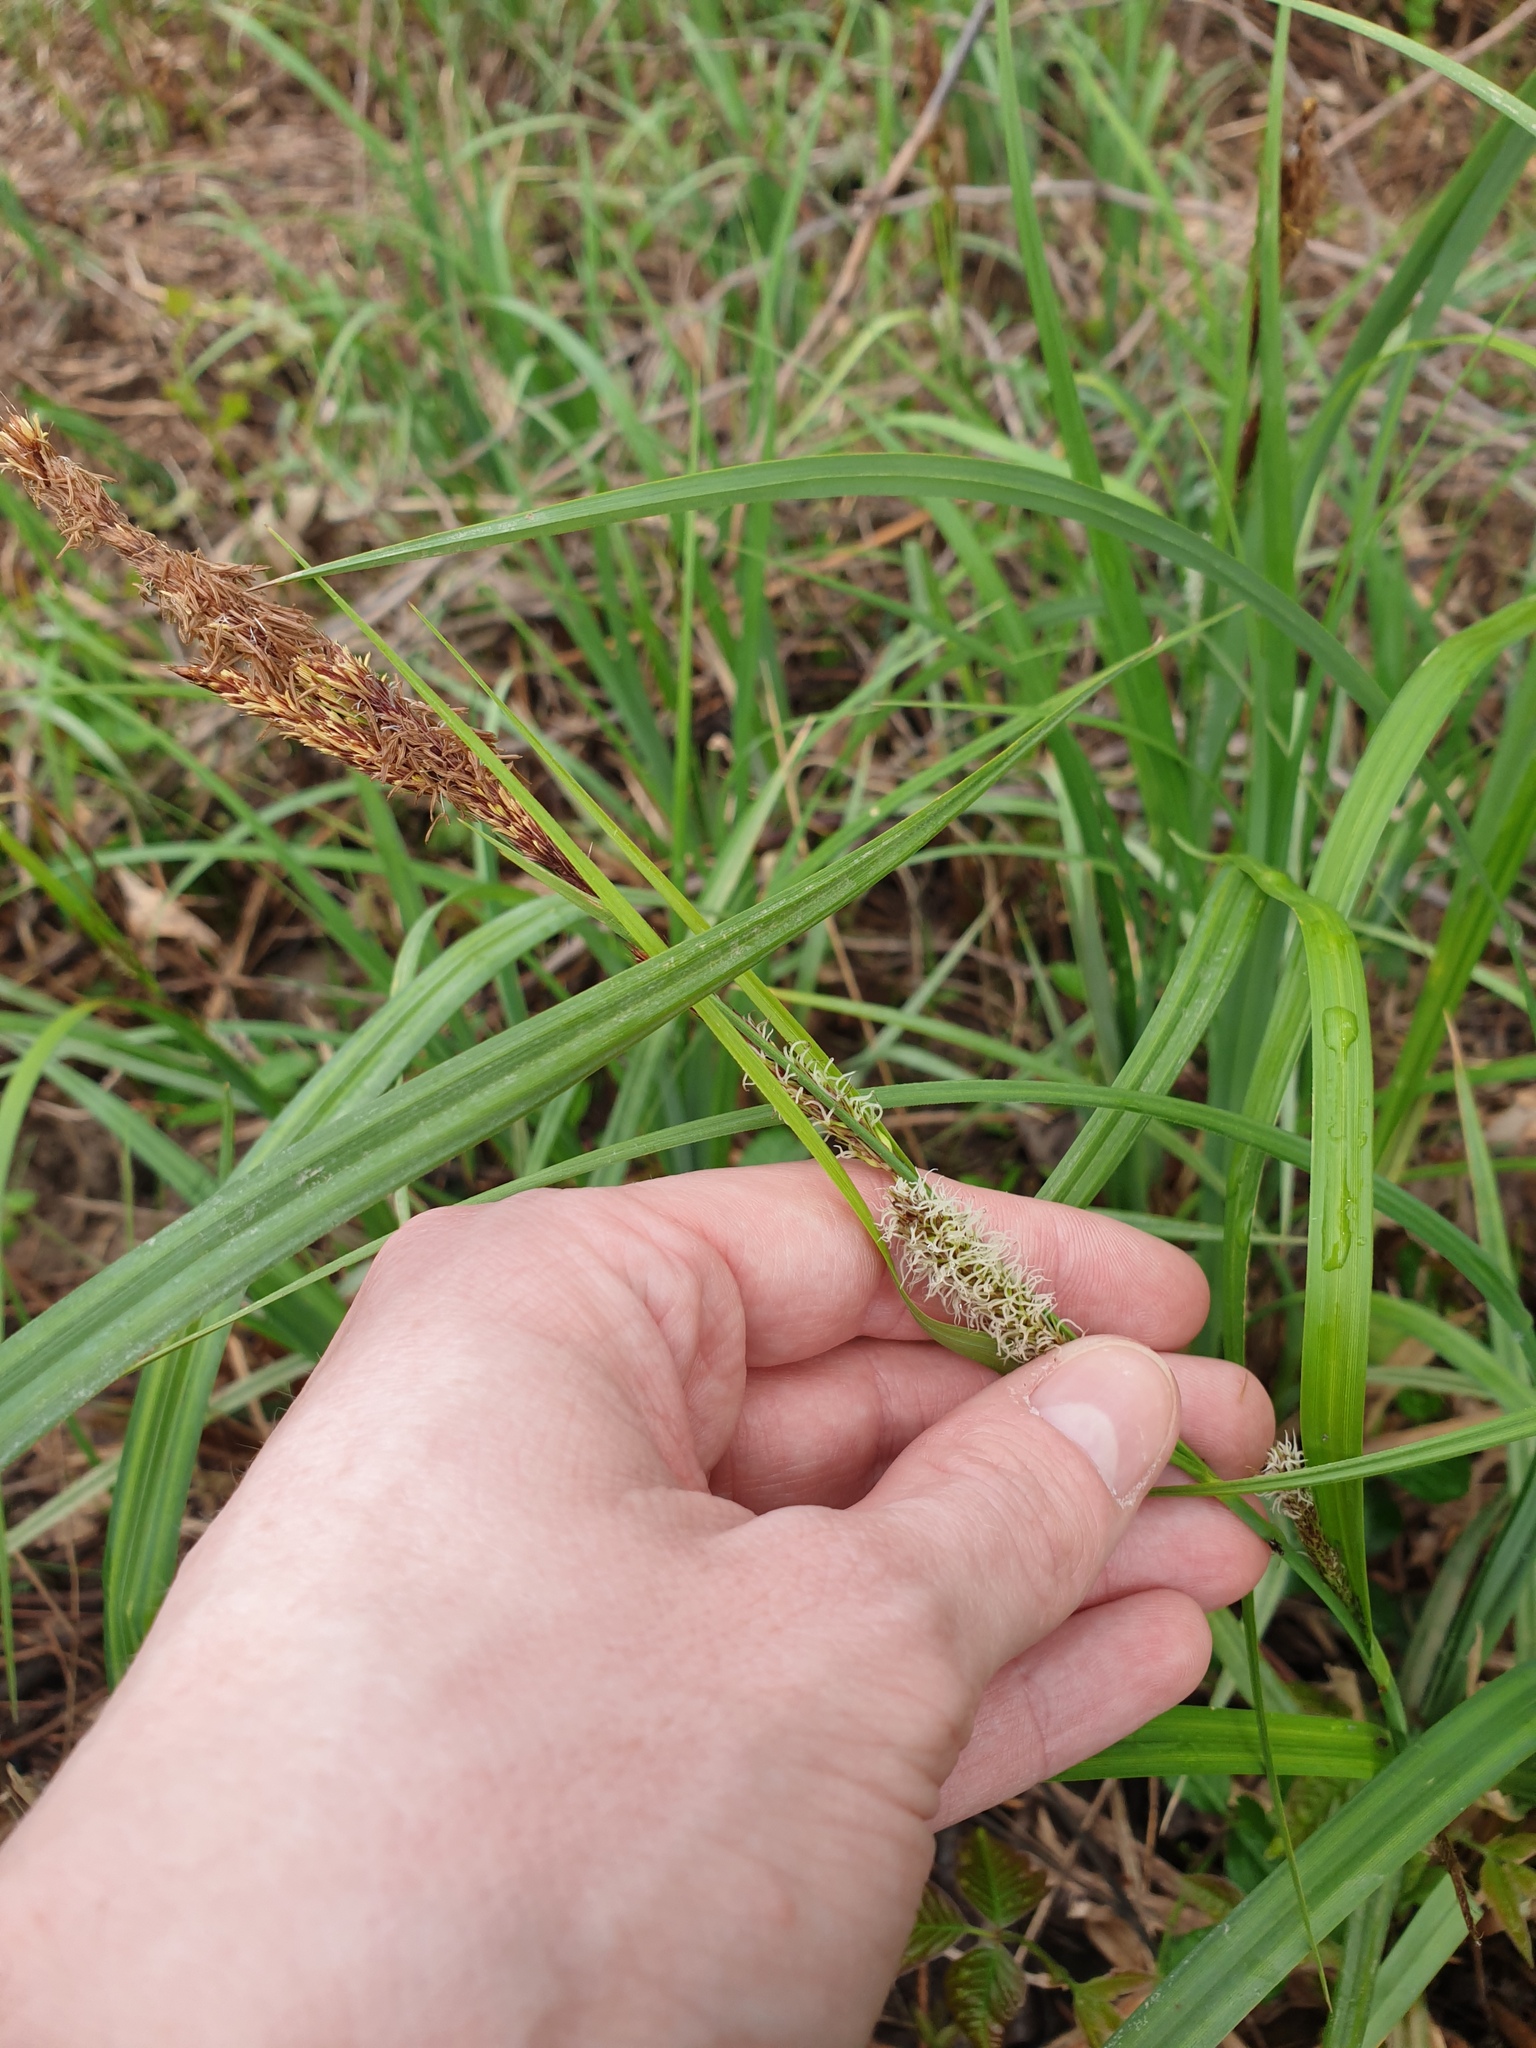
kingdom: Plantae
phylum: Tracheophyta
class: Liliopsida
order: Poales
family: Cyperaceae
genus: Carex
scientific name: Carex hyalinolepis
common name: Shoreline sedge
